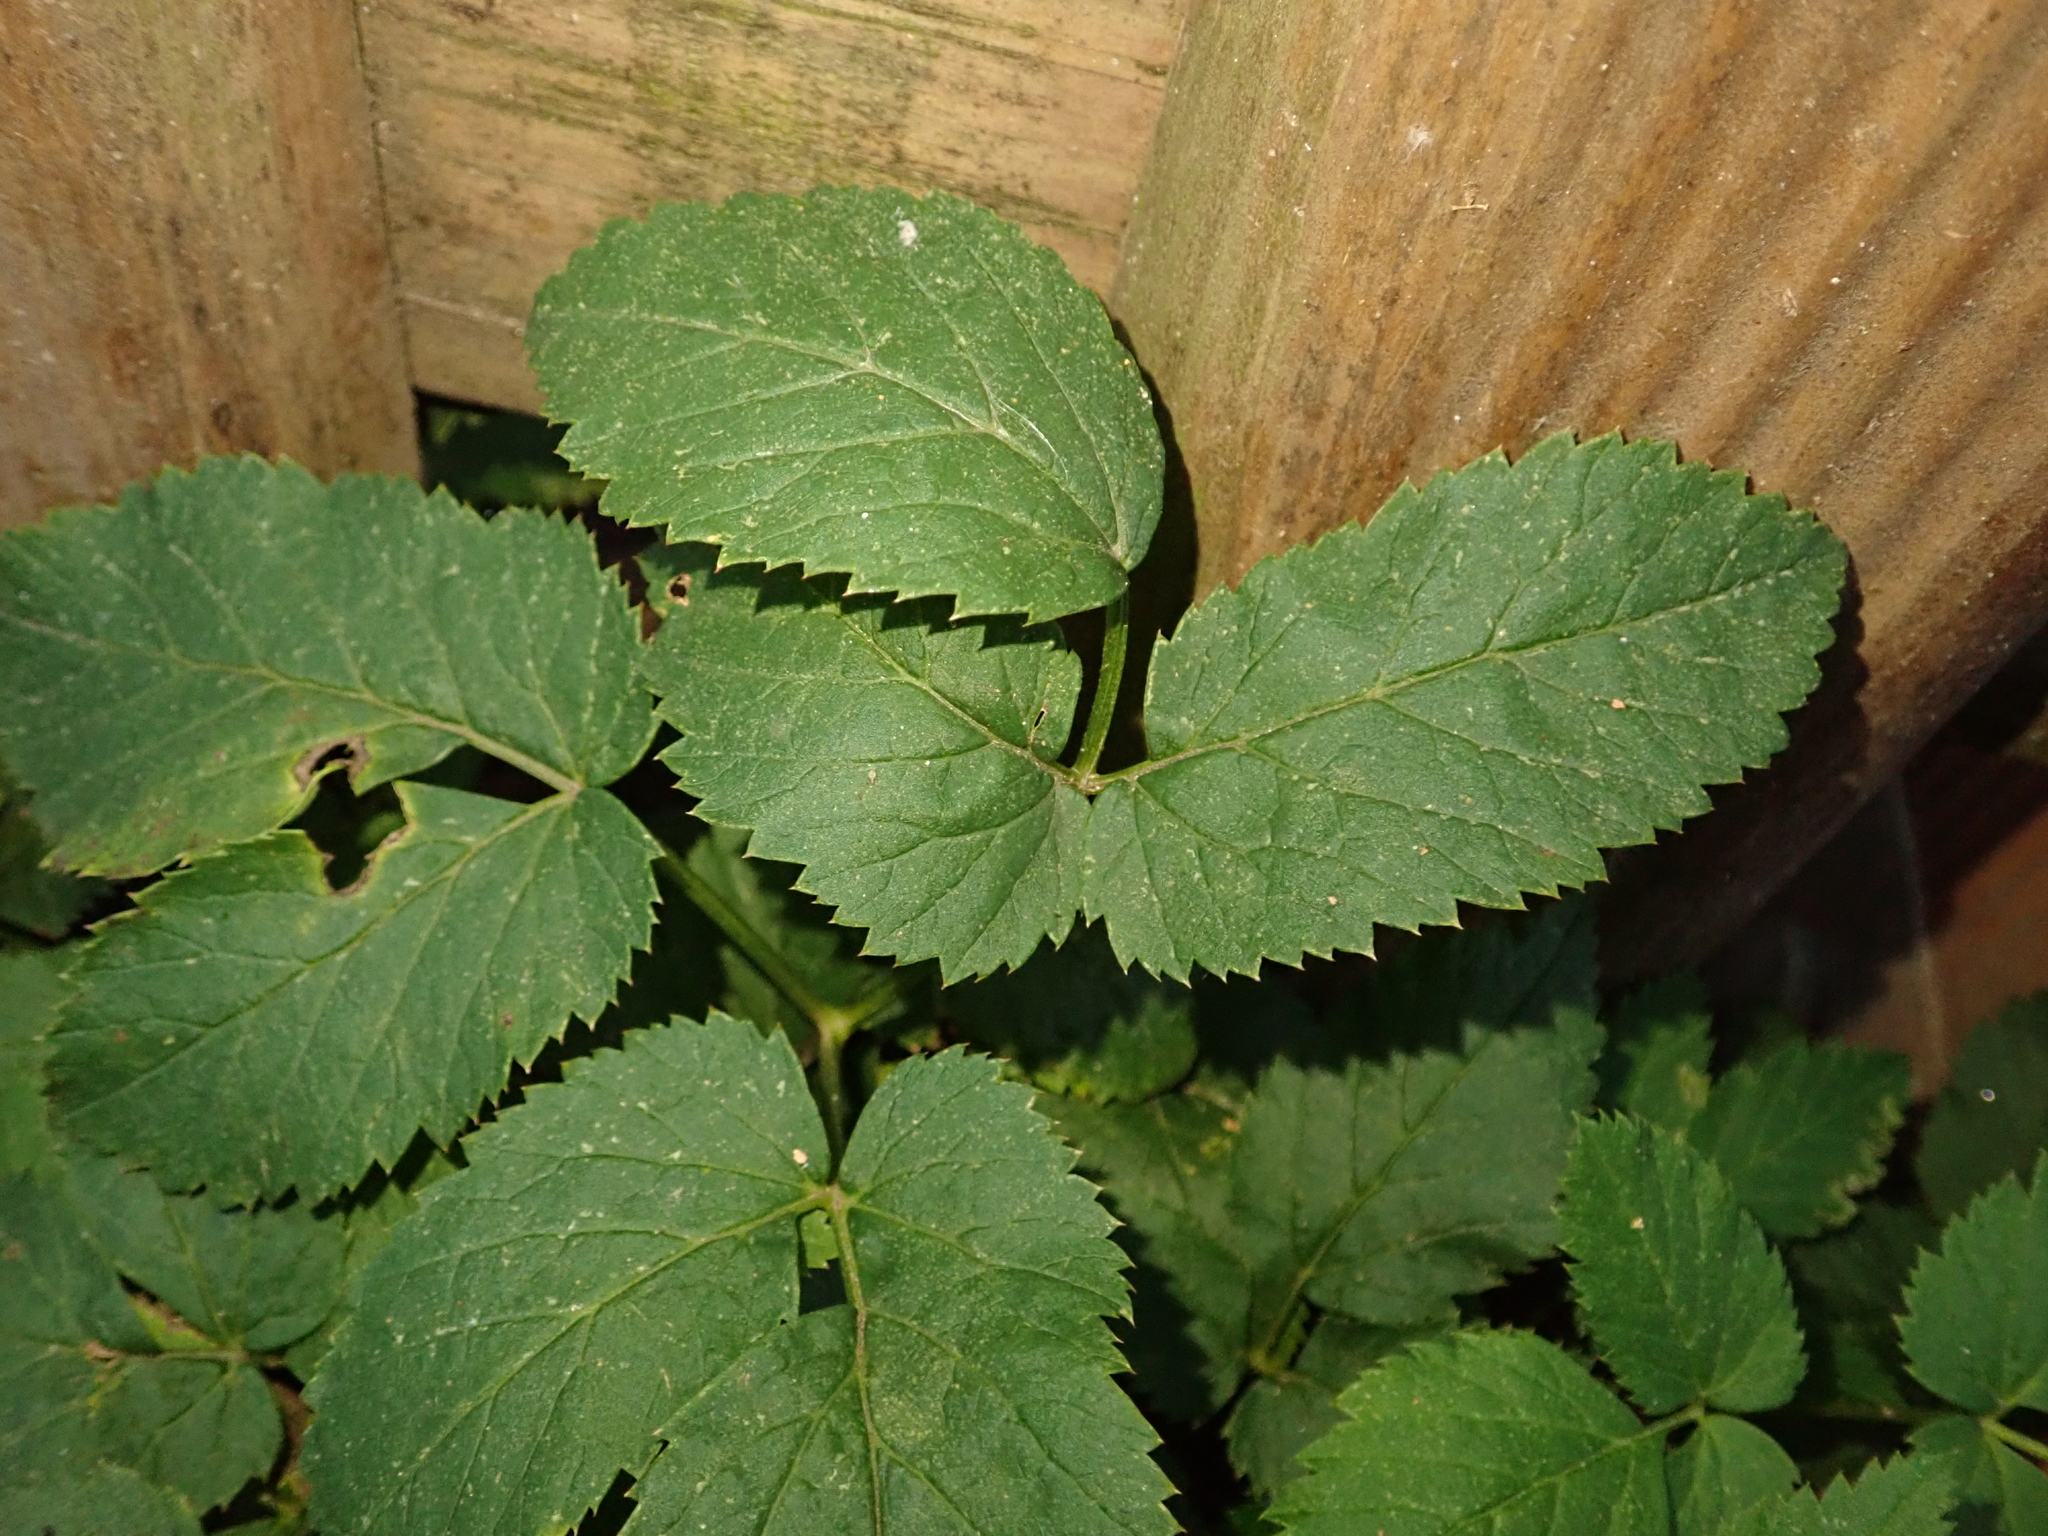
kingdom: Plantae
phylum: Tracheophyta
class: Magnoliopsida
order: Apiales
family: Apiaceae
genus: Aegopodium
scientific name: Aegopodium podagraria
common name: Ground-elder
